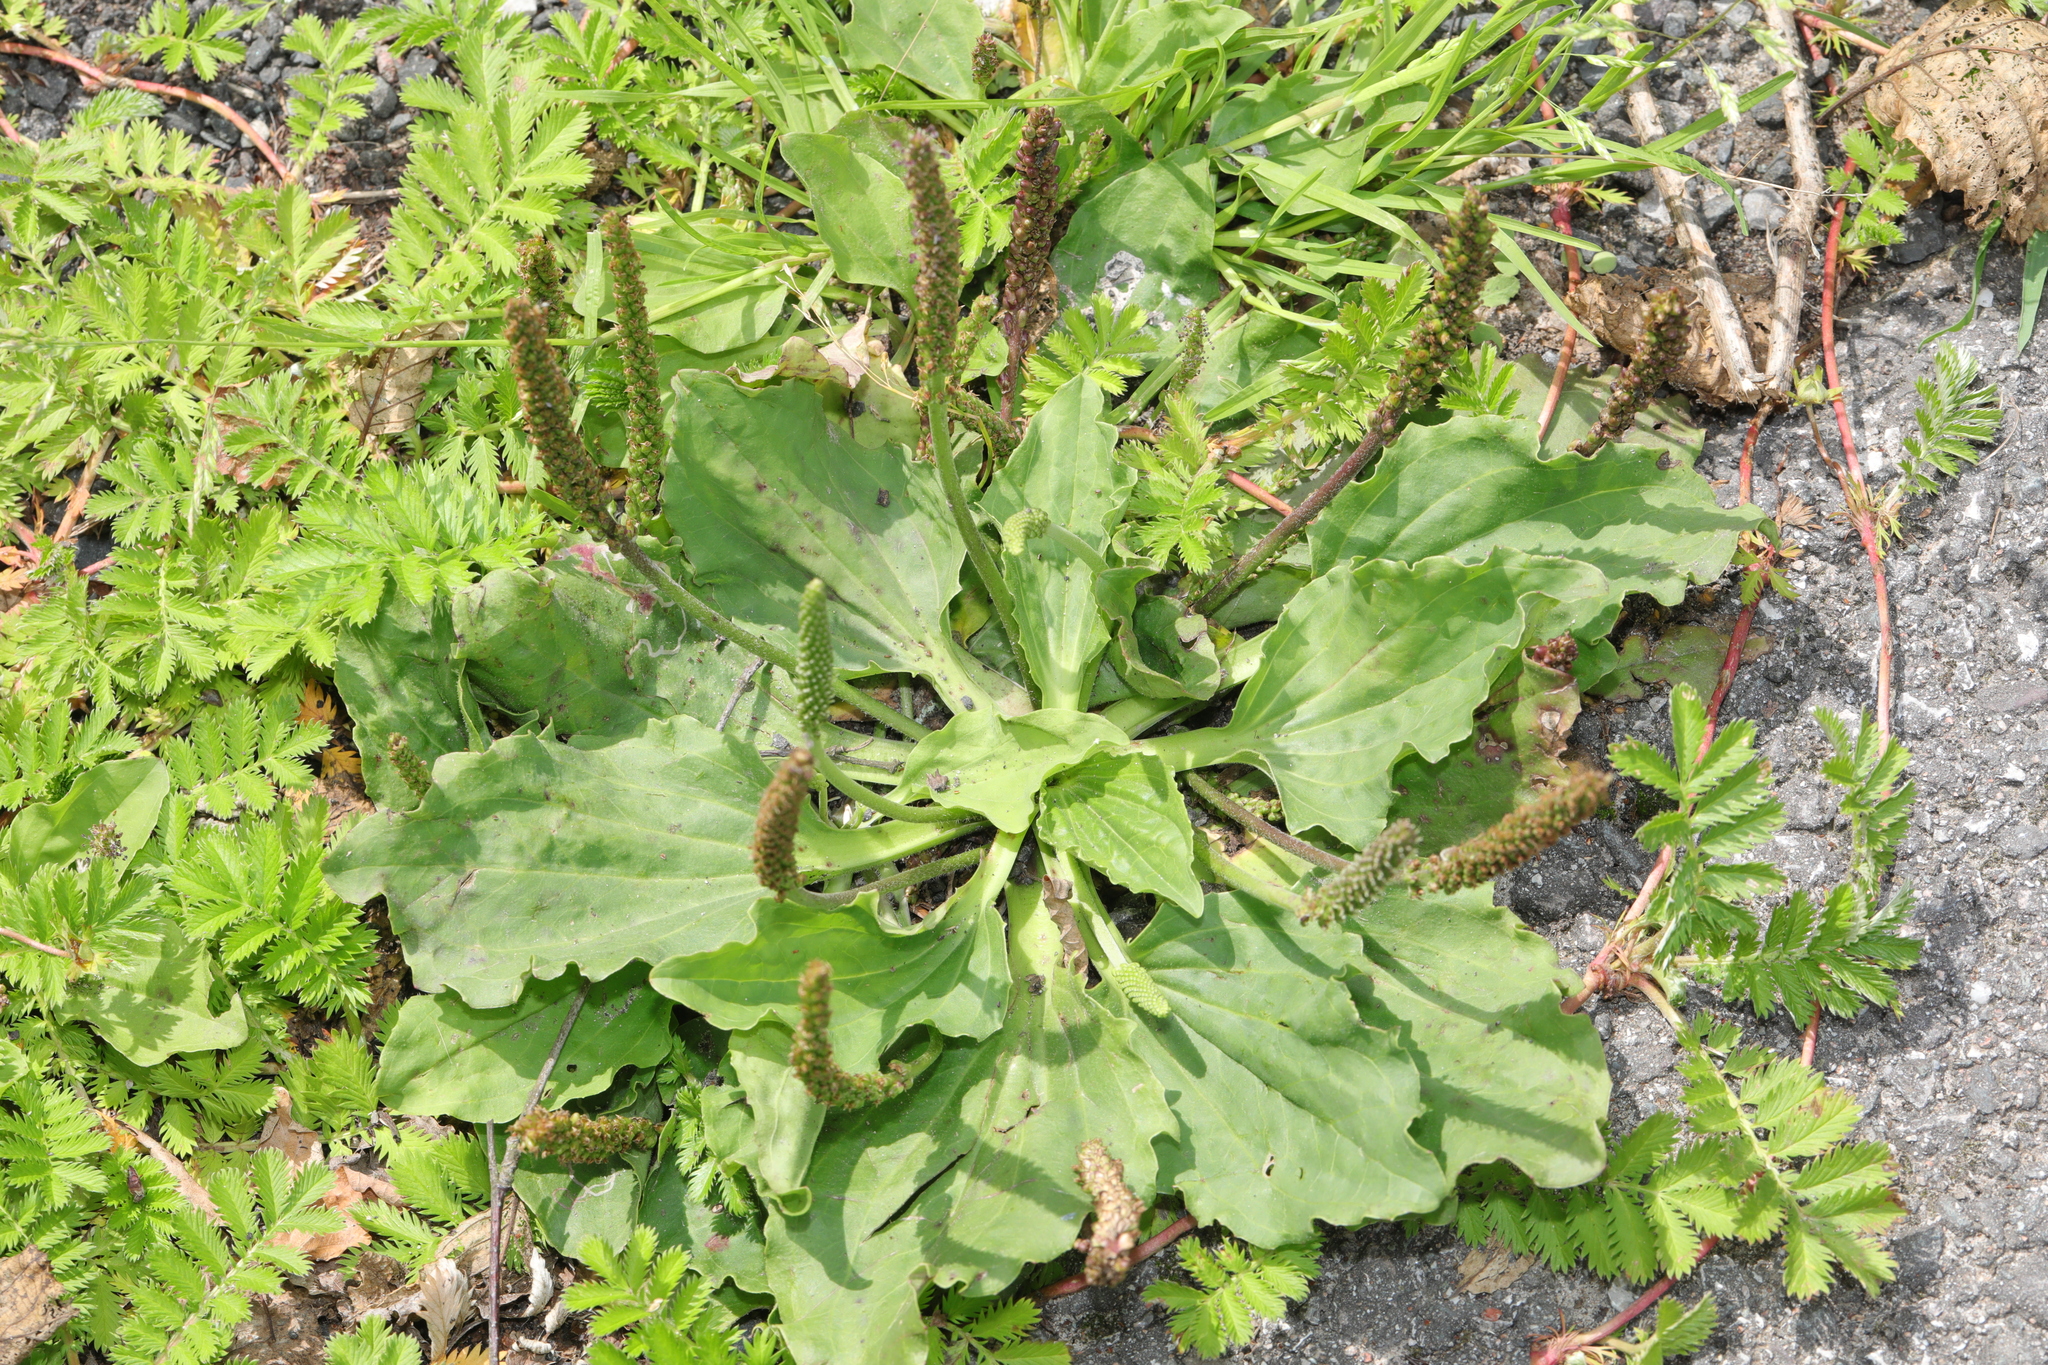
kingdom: Plantae
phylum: Tracheophyta
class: Magnoliopsida
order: Lamiales
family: Plantaginaceae
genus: Plantago
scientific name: Plantago major
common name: Common plantain
